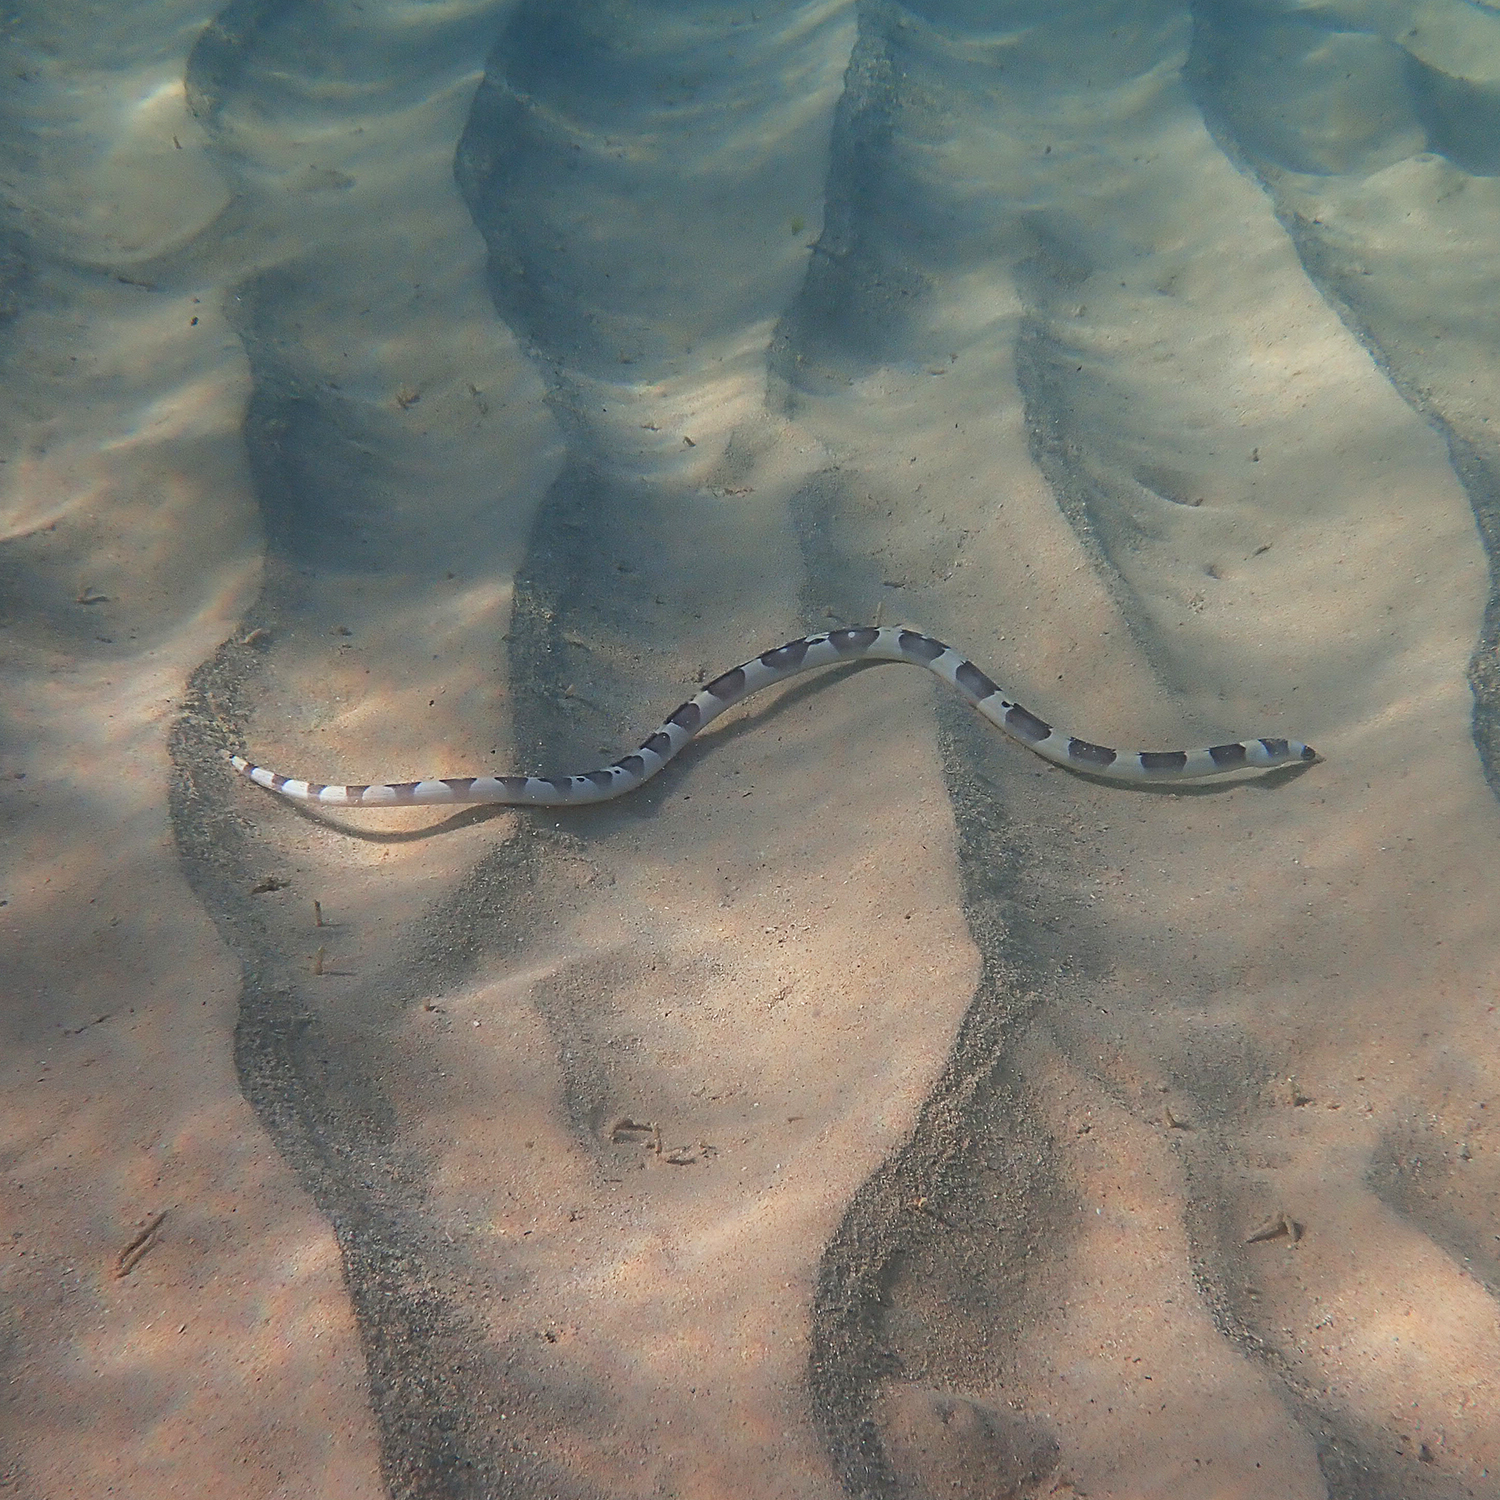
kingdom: Animalia
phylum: Chordata
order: Anguilliformes
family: Ophichthidae
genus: Leiuranus
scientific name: Leiuranus versicolor
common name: Convict snake eel
